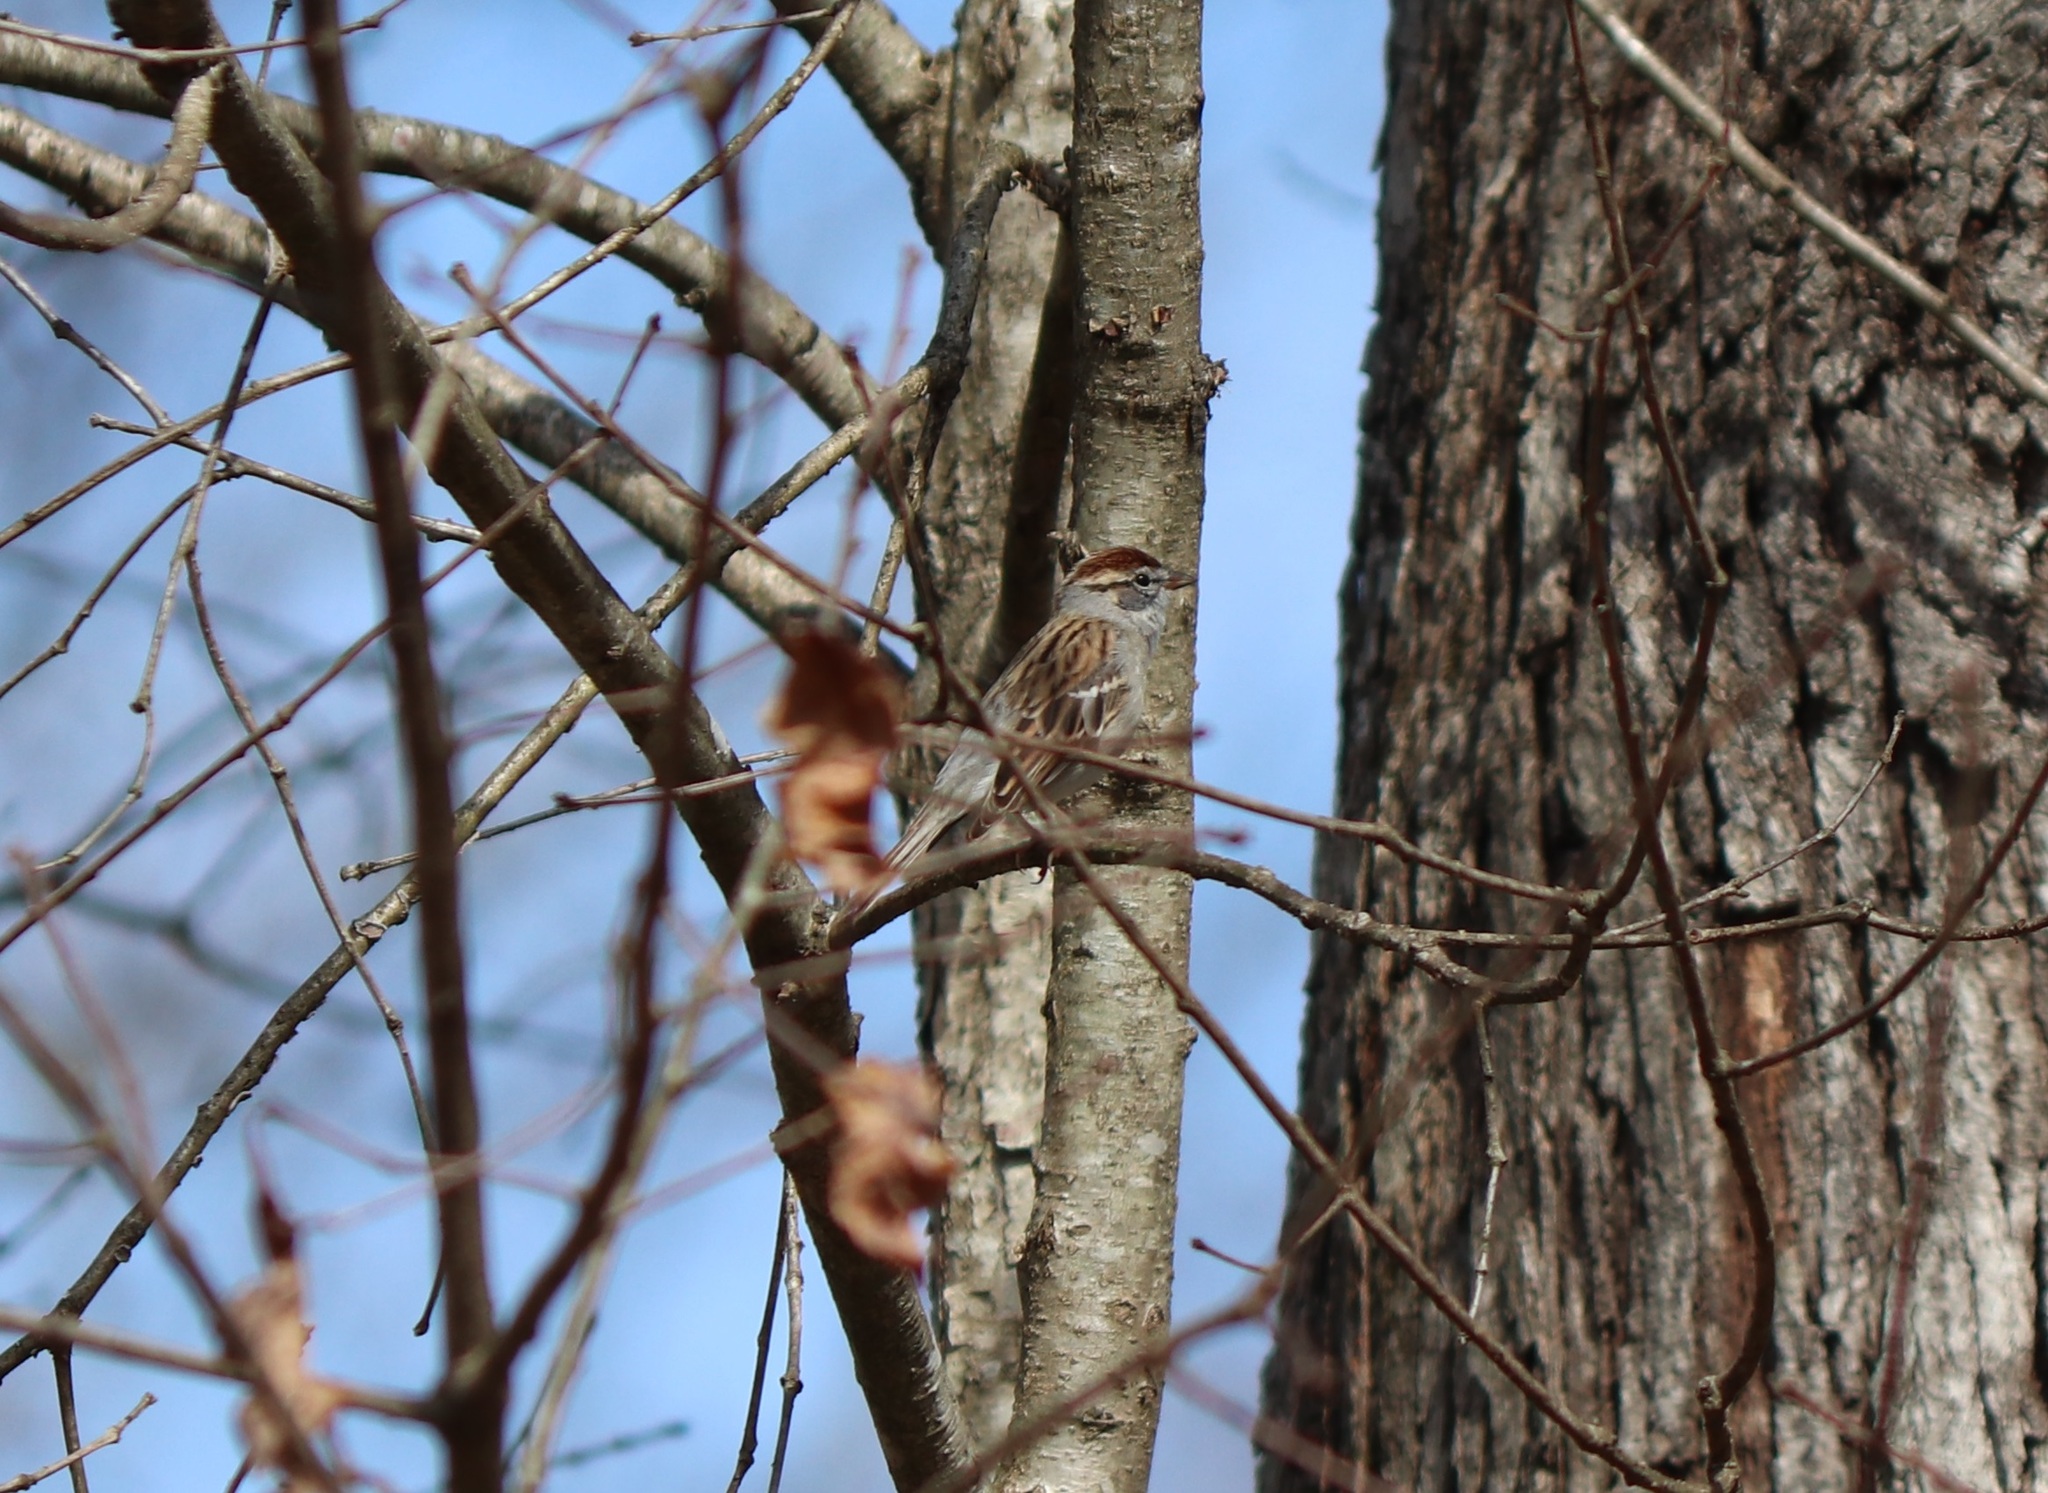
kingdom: Animalia
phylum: Chordata
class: Aves
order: Passeriformes
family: Passerellidae
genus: Spizella
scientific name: Spizella passerina
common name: Chipping sparrow
